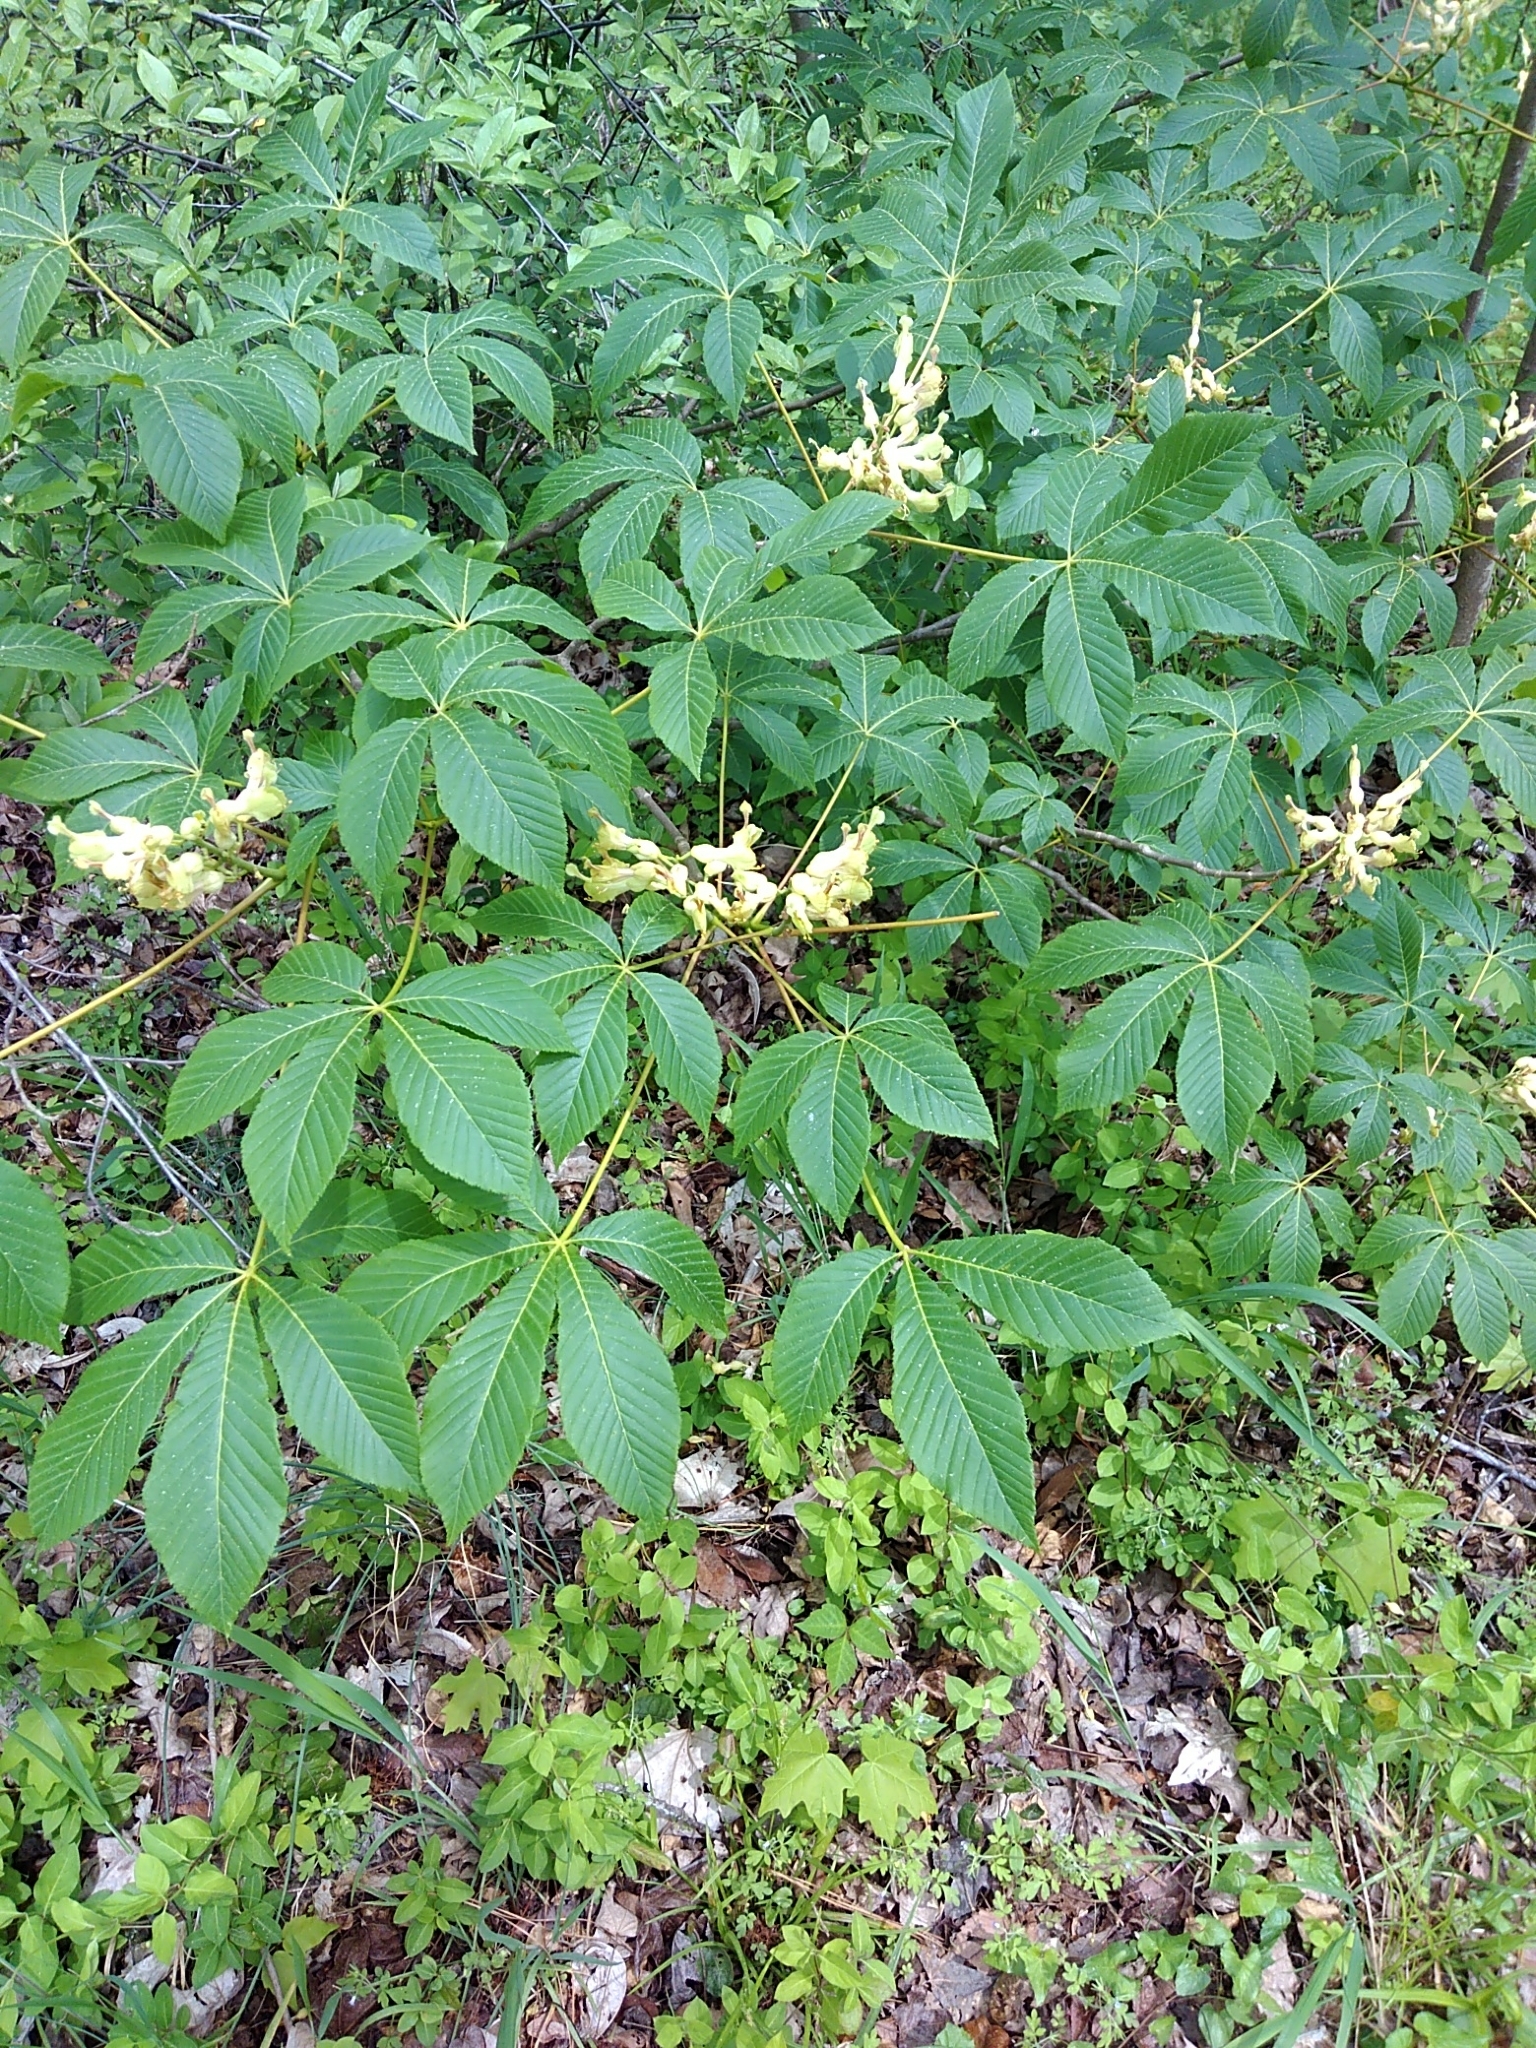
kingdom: Plantae
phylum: Tracheophyta
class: Magnoliopsida
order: Sapindales
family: Sapindaceae
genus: Aesculus
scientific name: Aesculus sylvatica
